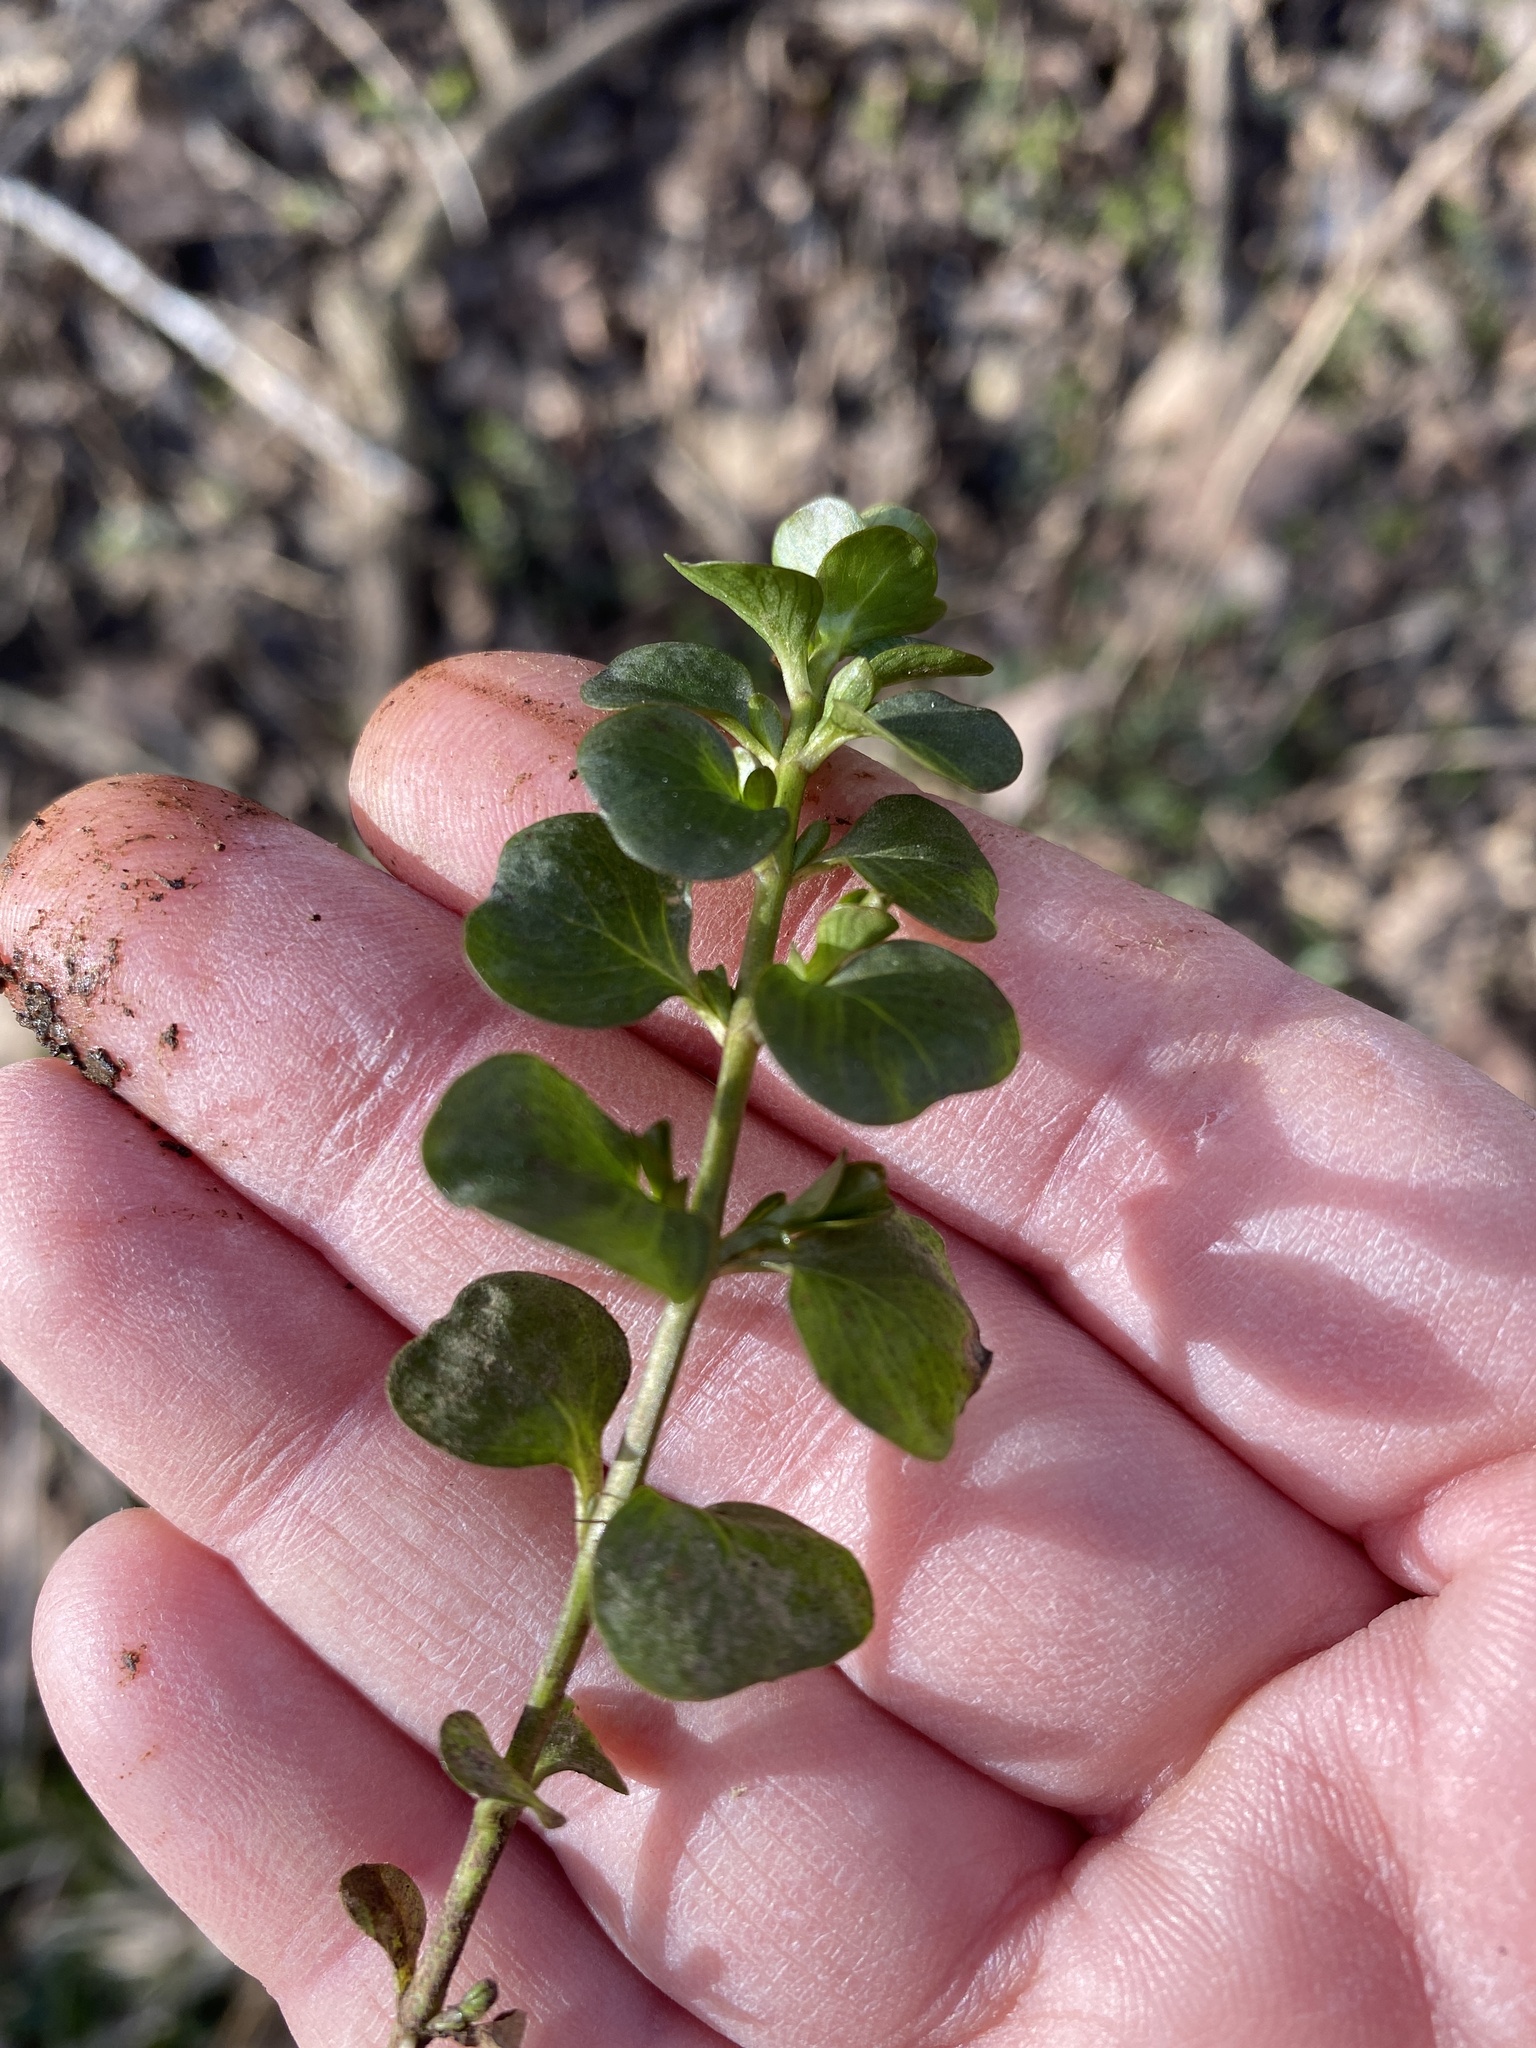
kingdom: Plantae
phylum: Tracheophyta
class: Magnoliopsida
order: Ericales
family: Primulaceae
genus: Lysimachia
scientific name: Lysimachia nummularia
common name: Moneywort
